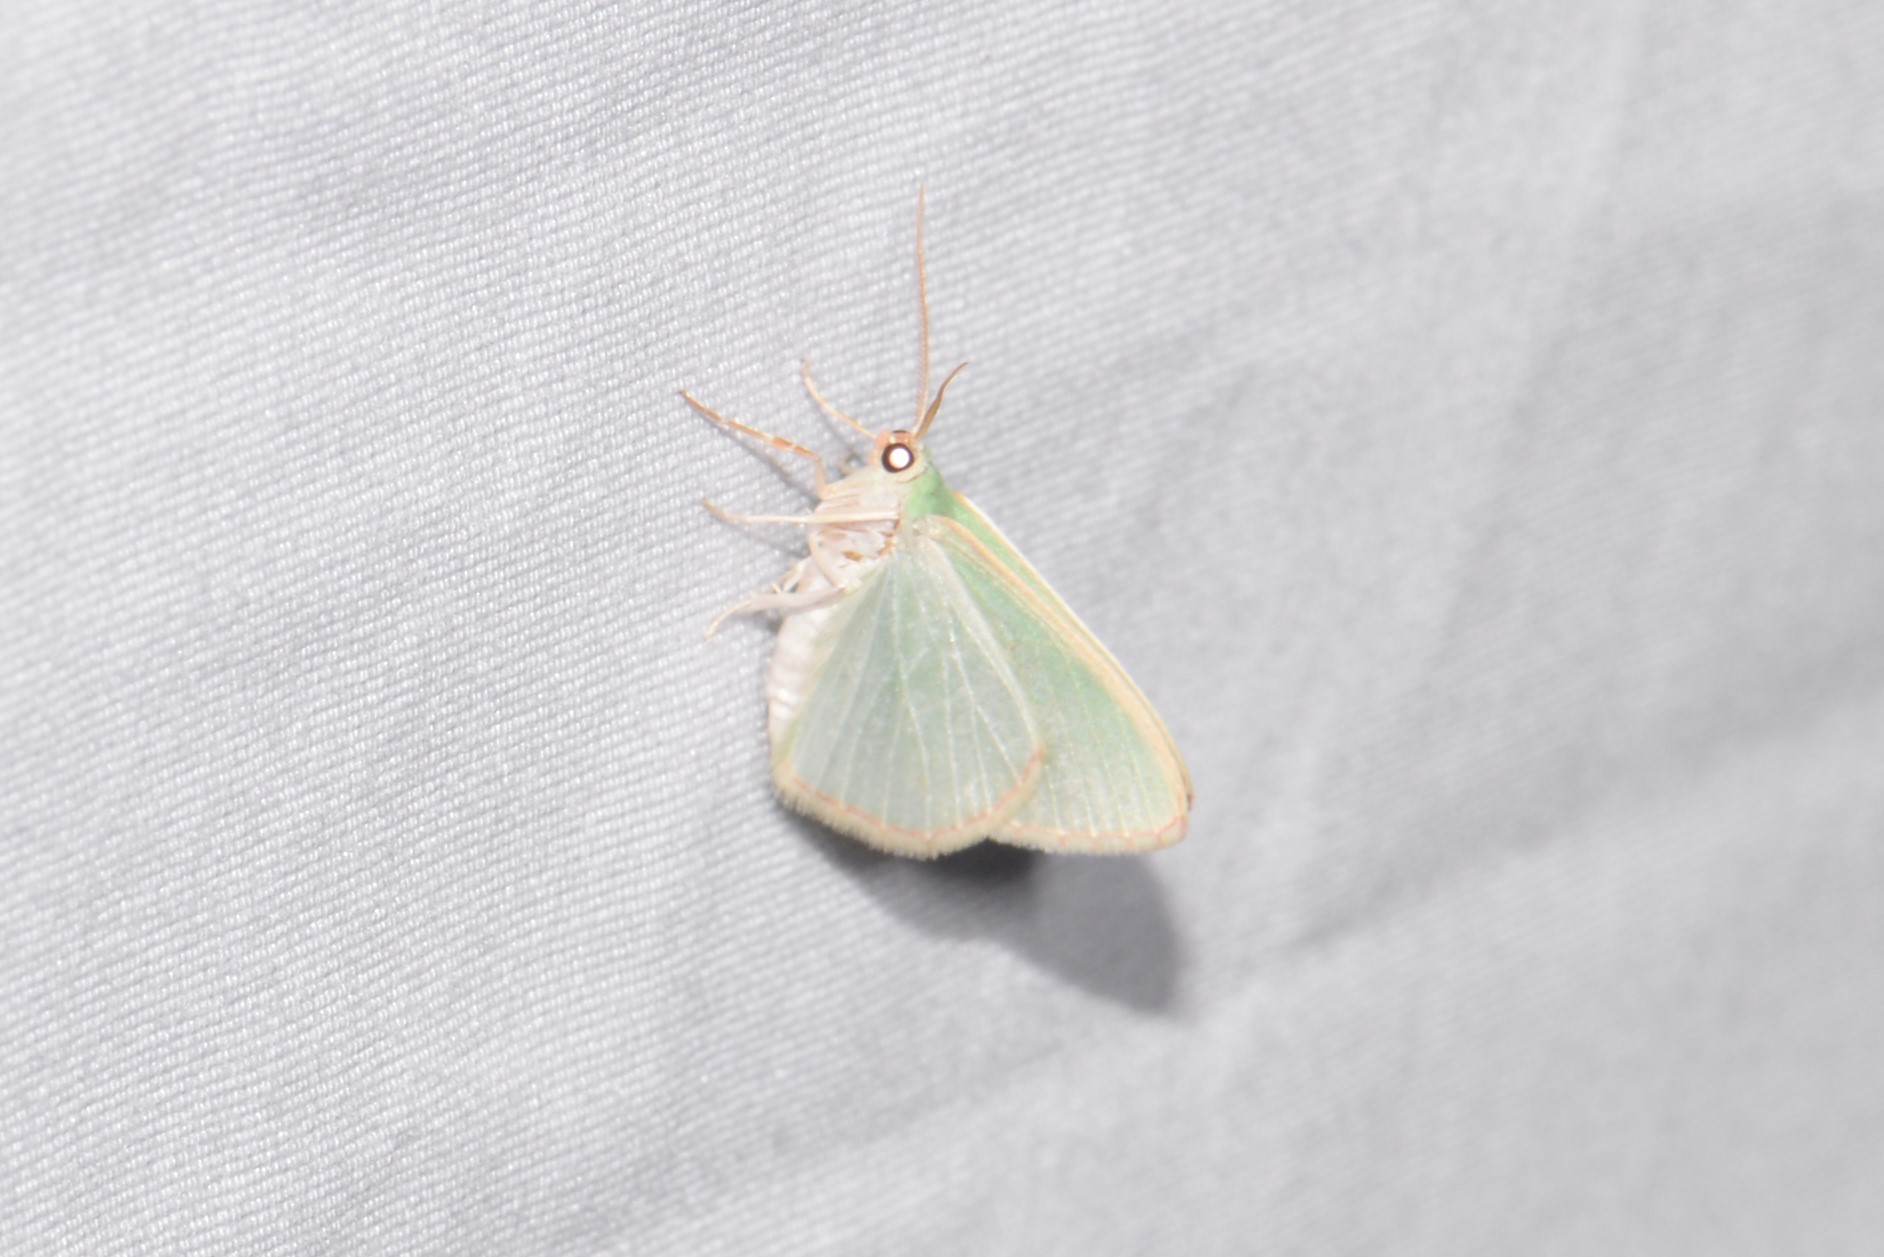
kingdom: Animalia
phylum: Arthropoda
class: Insecta
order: Lepidoptera
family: Geometridae
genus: Nemoria
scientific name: Nemoria bistriaria
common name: Red-fringed emerald
